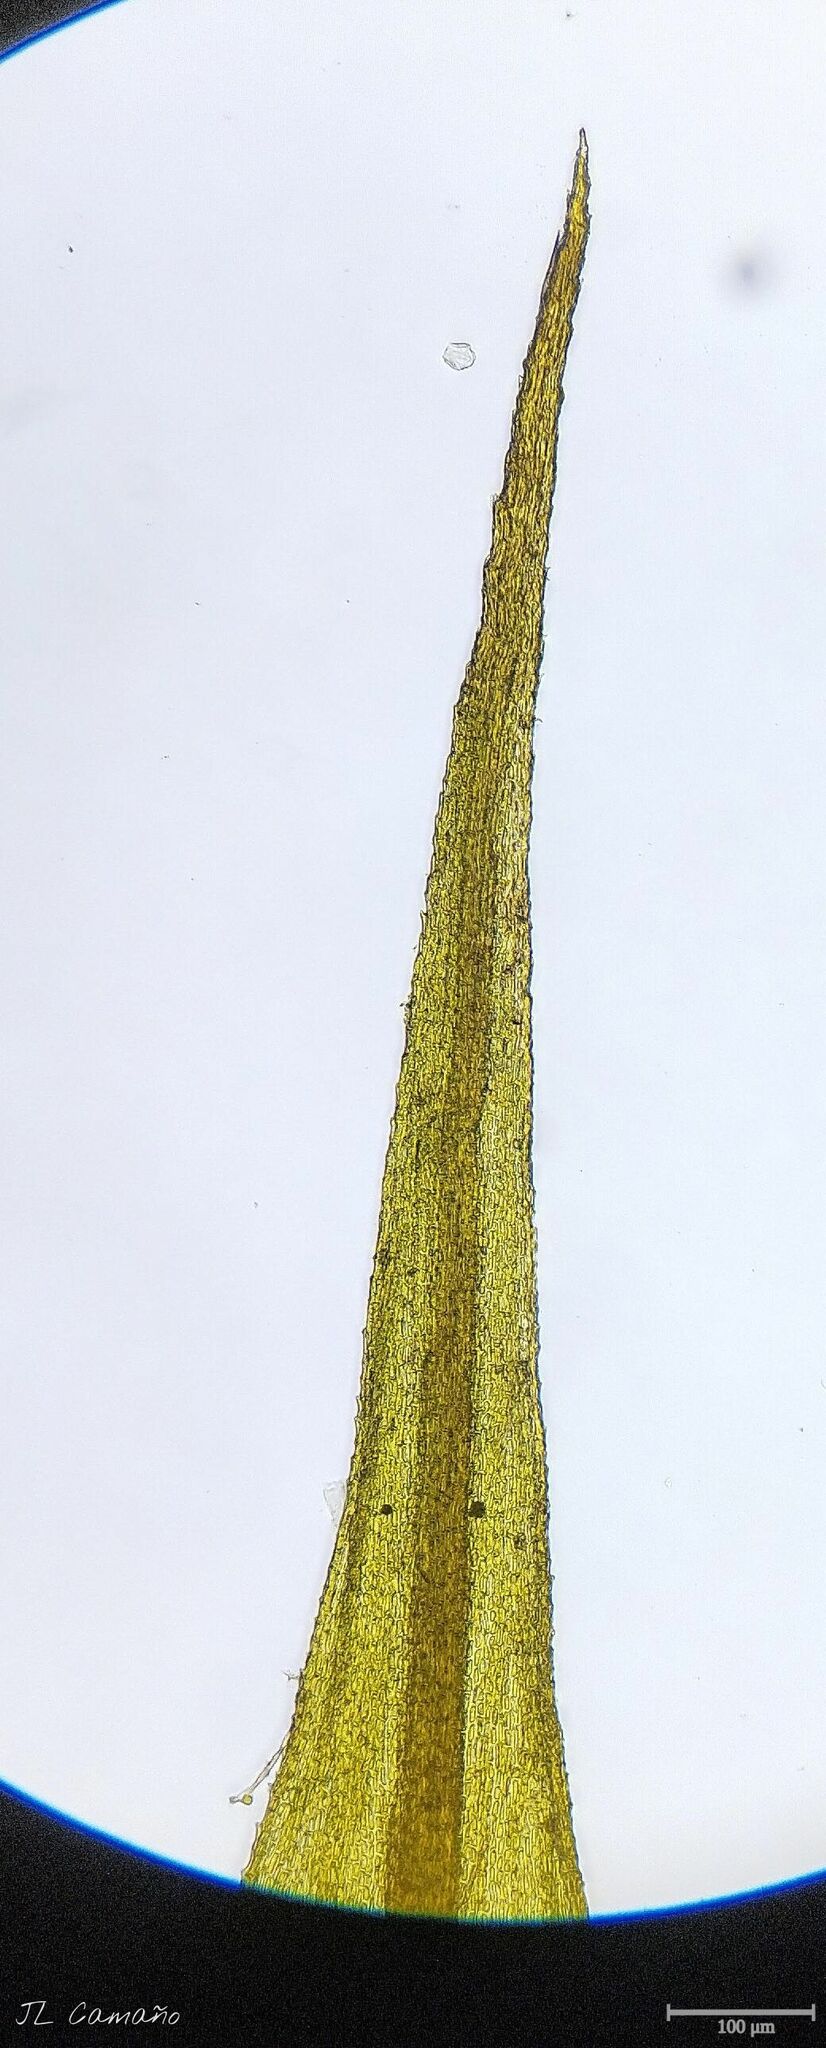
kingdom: Plantae
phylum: Bryophyta
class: Bryopsida
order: Bartramiales
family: Bartramiaceae
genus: Anacolia
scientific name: Anacolia webbii
